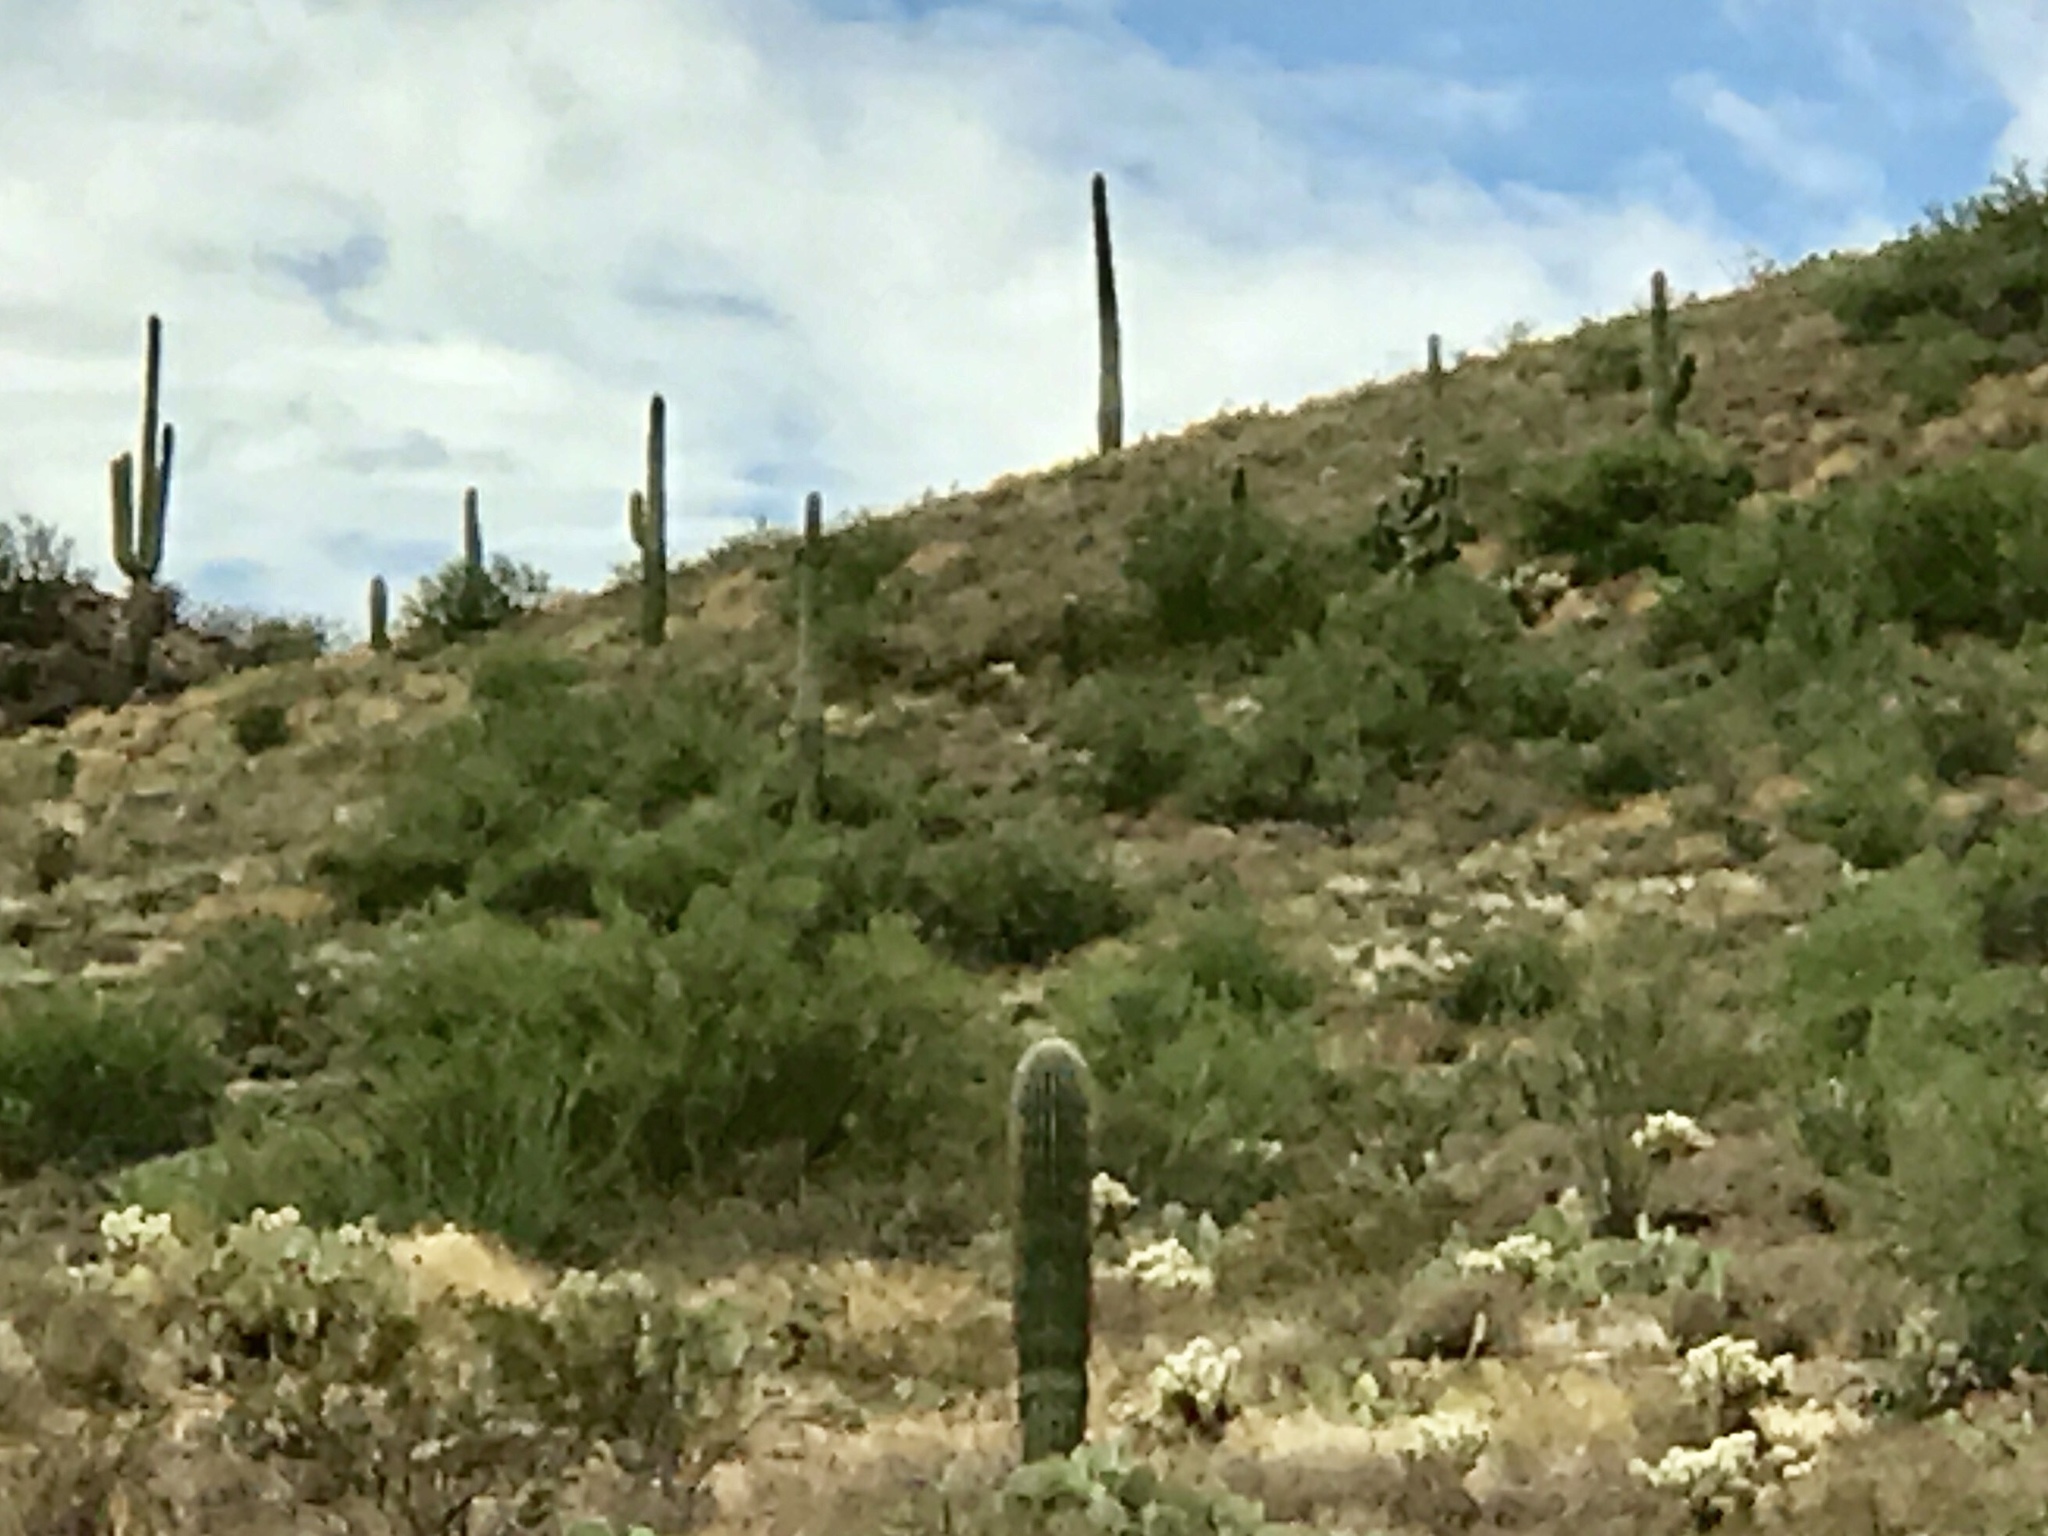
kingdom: Plantae
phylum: Tracheophyta
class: Magnoliopsida
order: Caryophyllales
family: Cactaceae
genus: Carnegiea
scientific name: Carnegiea gigantea
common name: Saguaro
